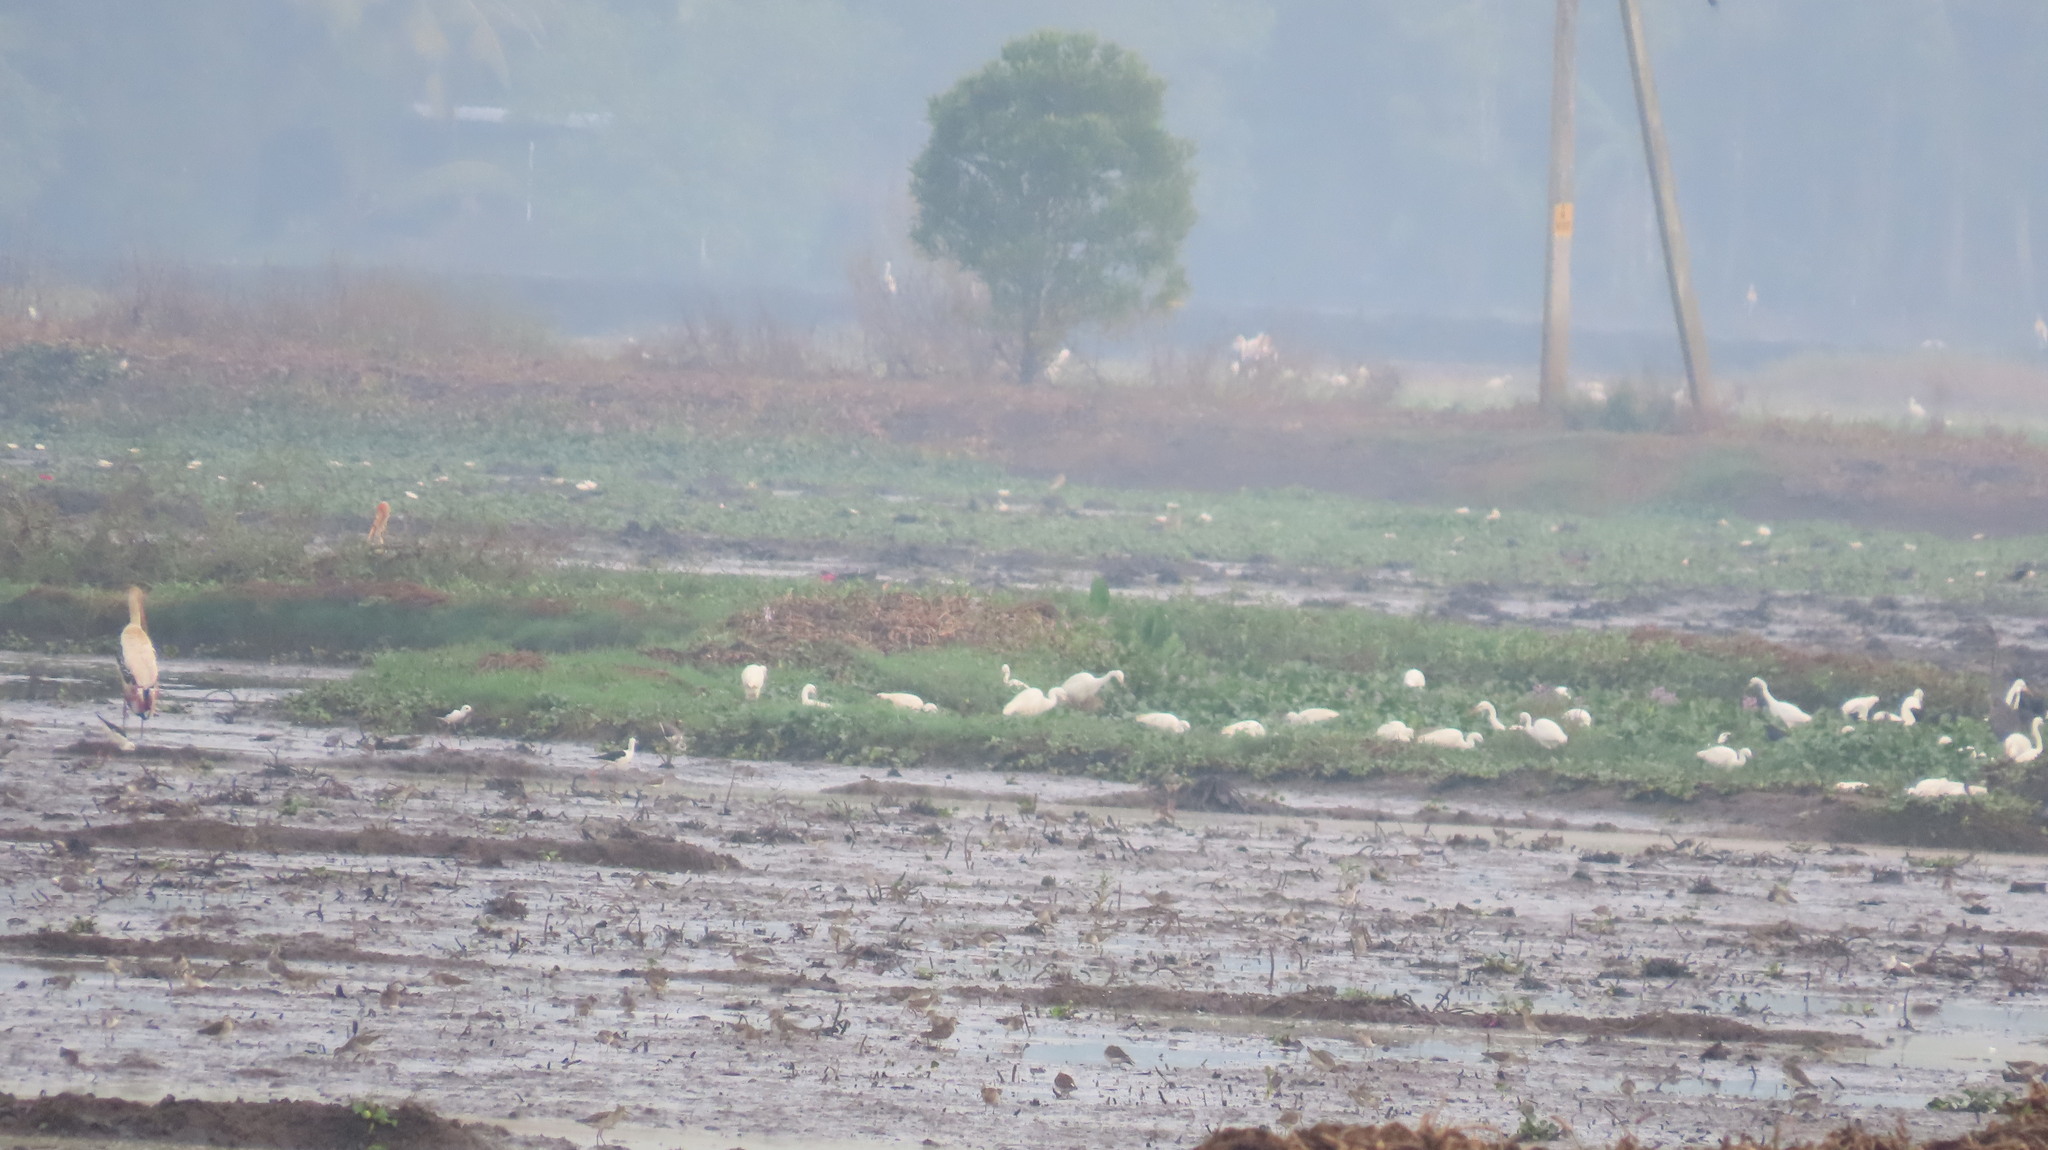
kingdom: Animalia
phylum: Chordata
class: Aves
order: Ciconiiformes
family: Ciconiidae
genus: Mycteria
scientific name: Mycteria leucocephala
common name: Painted stork
